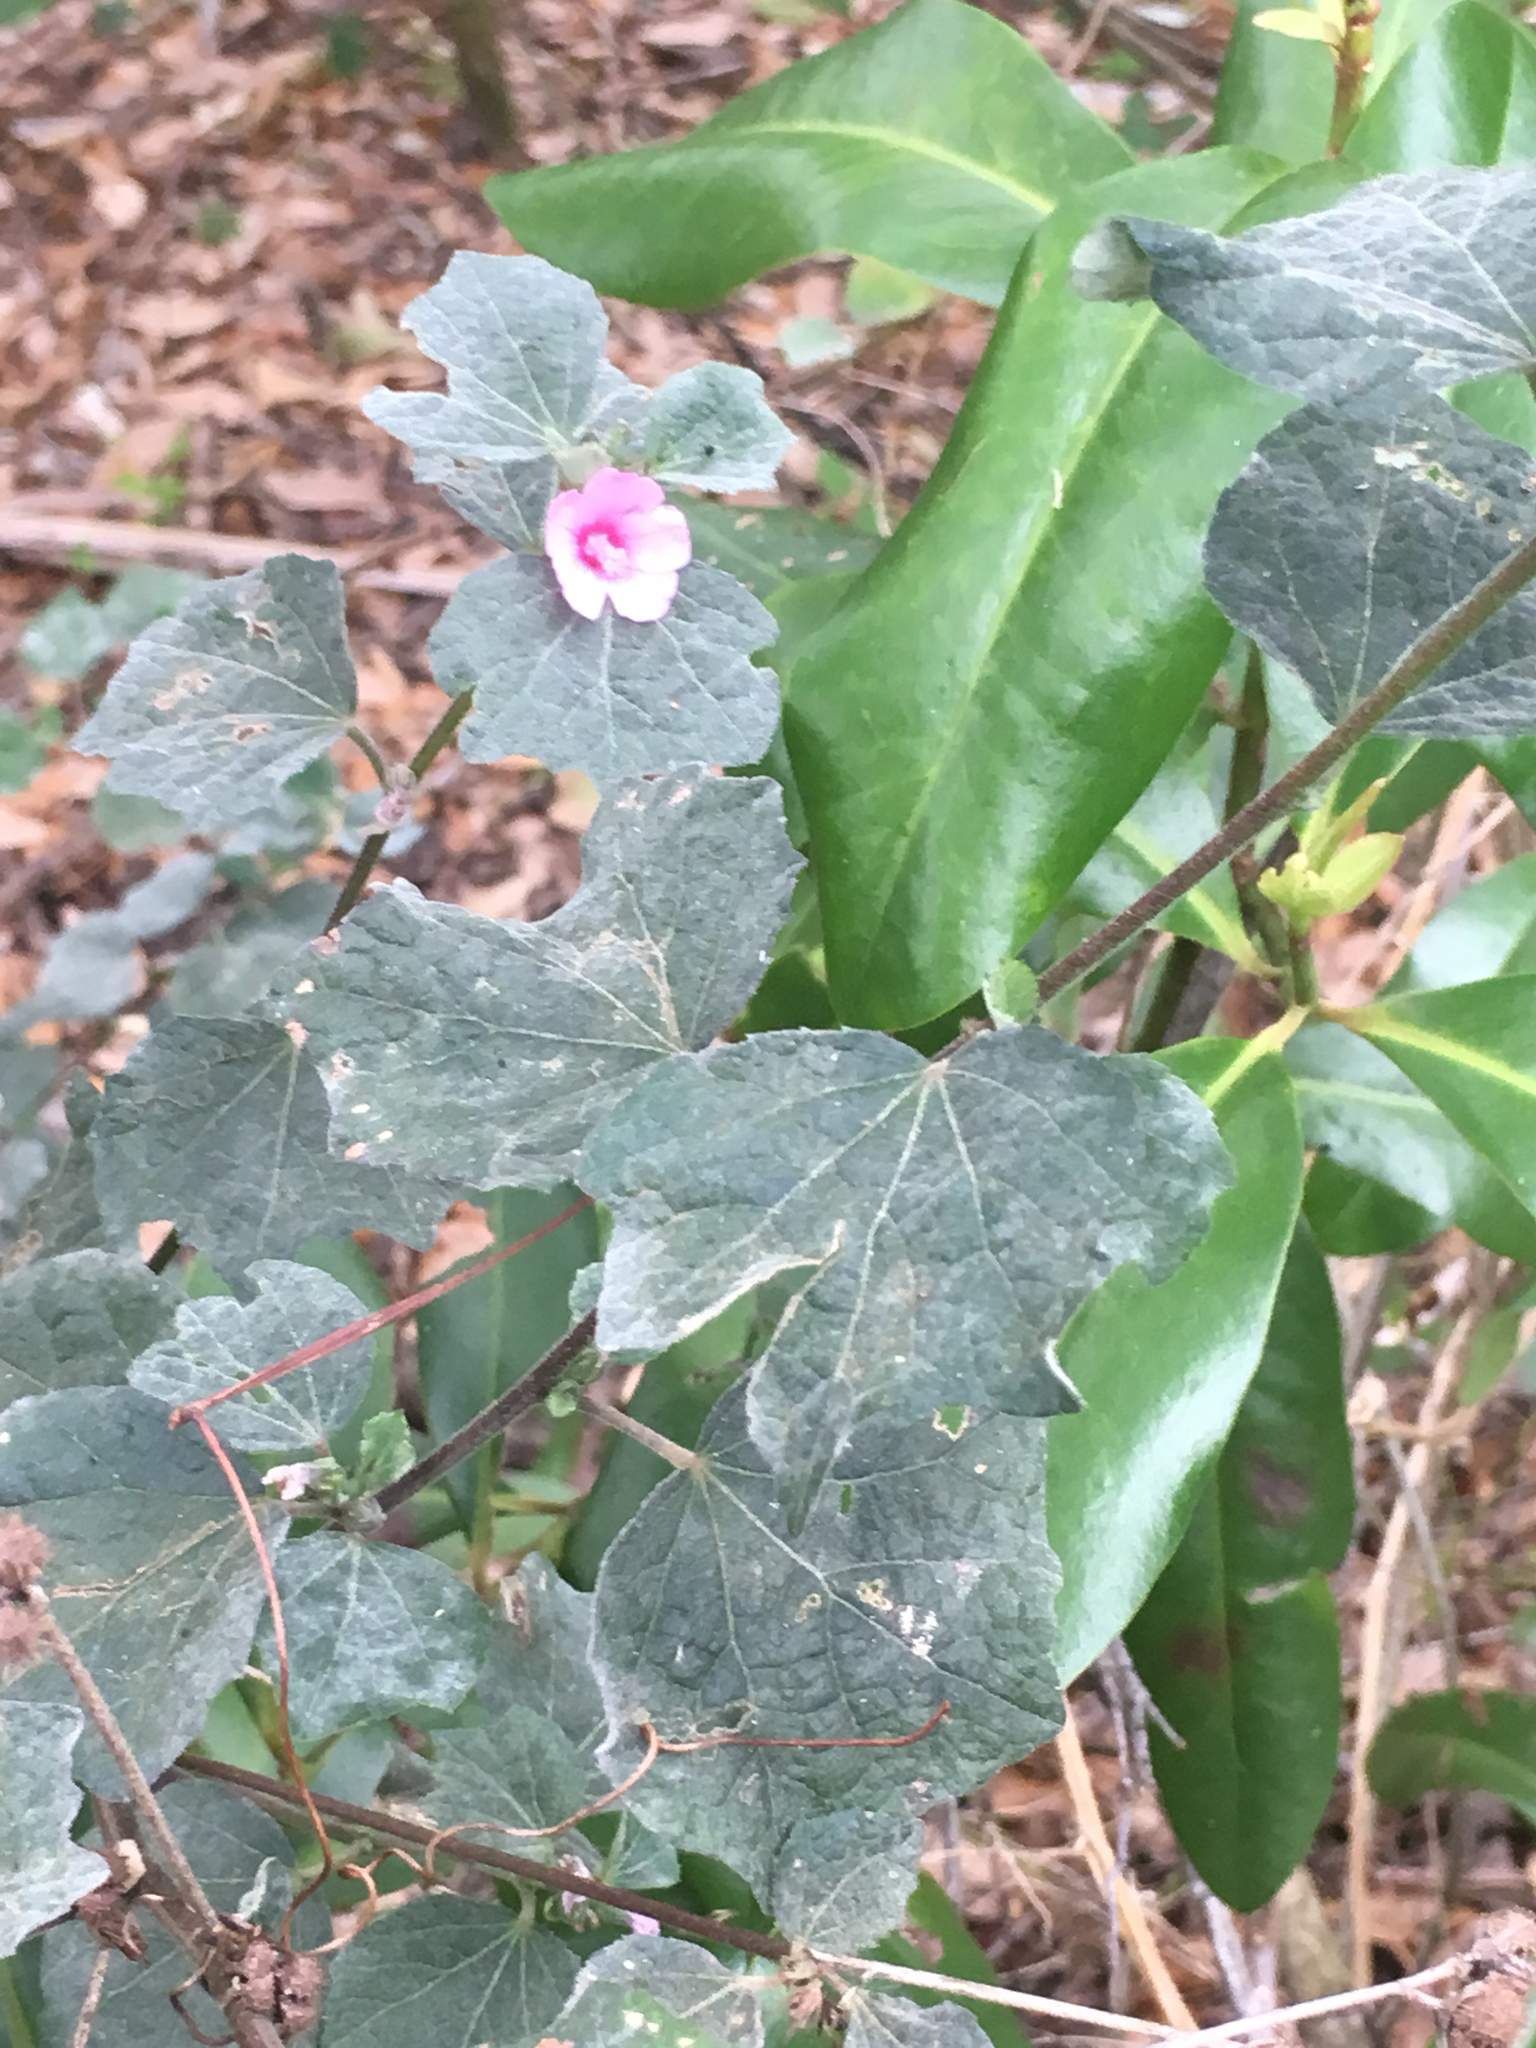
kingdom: Plantae
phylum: Tracheophyta
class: Magnoliopsida
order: Malvales
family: Malvaceae
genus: Urena
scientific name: Urena lobata
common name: Caesarweed
